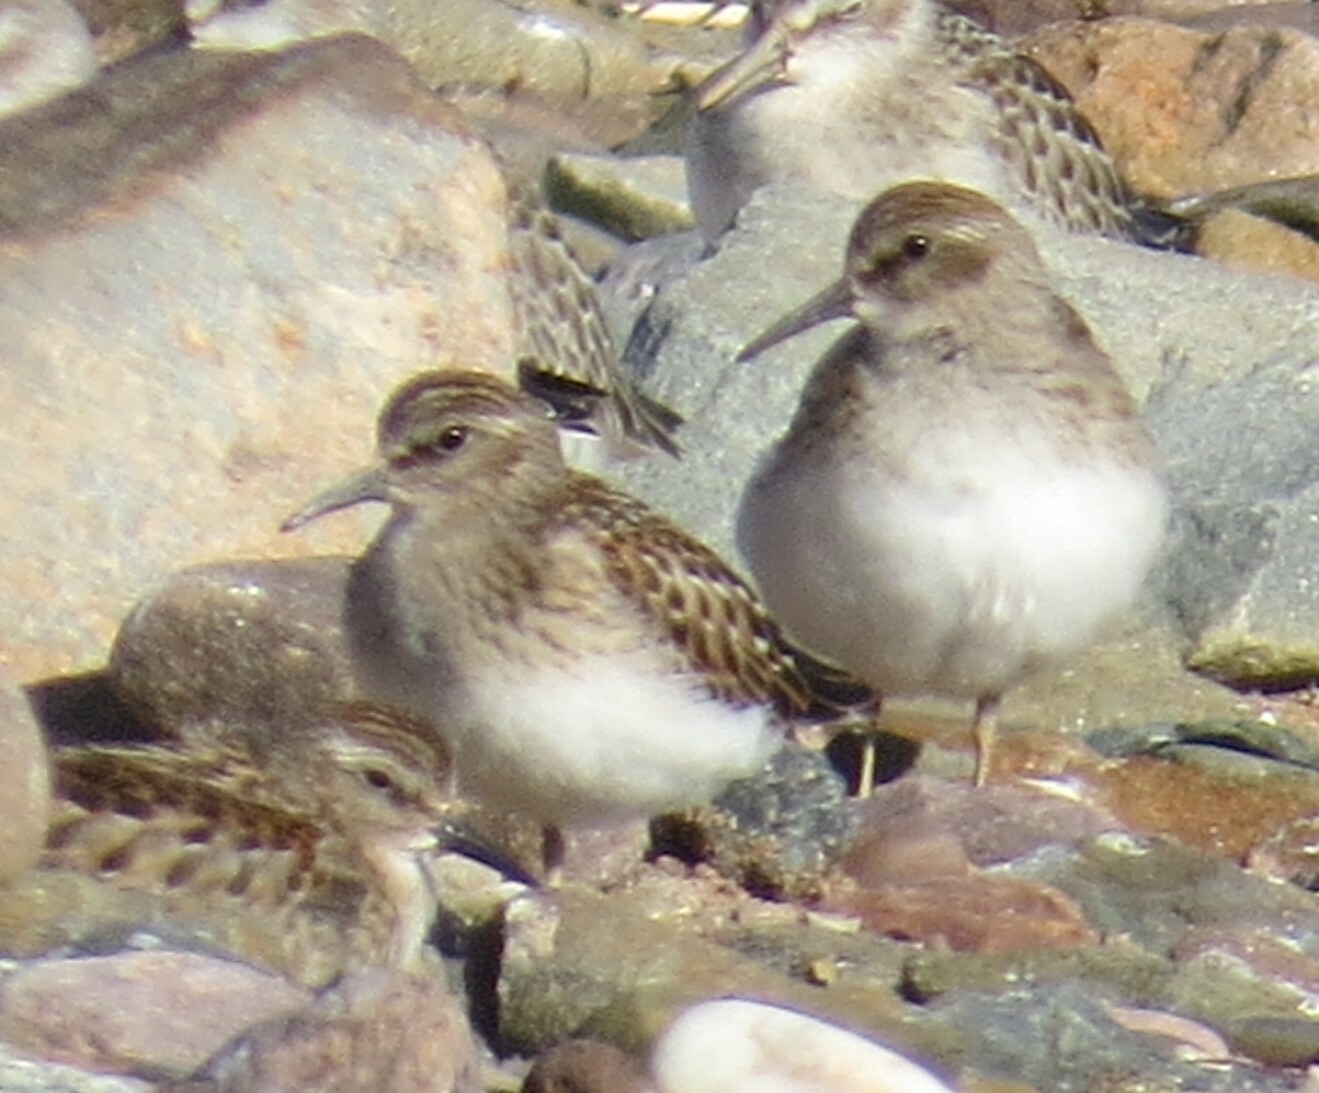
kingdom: Animalia
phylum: Chordata
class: Aves
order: Charadriiformes
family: Scolopacidae
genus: Calidris
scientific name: Calidris minutilla
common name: Least sandpiper
